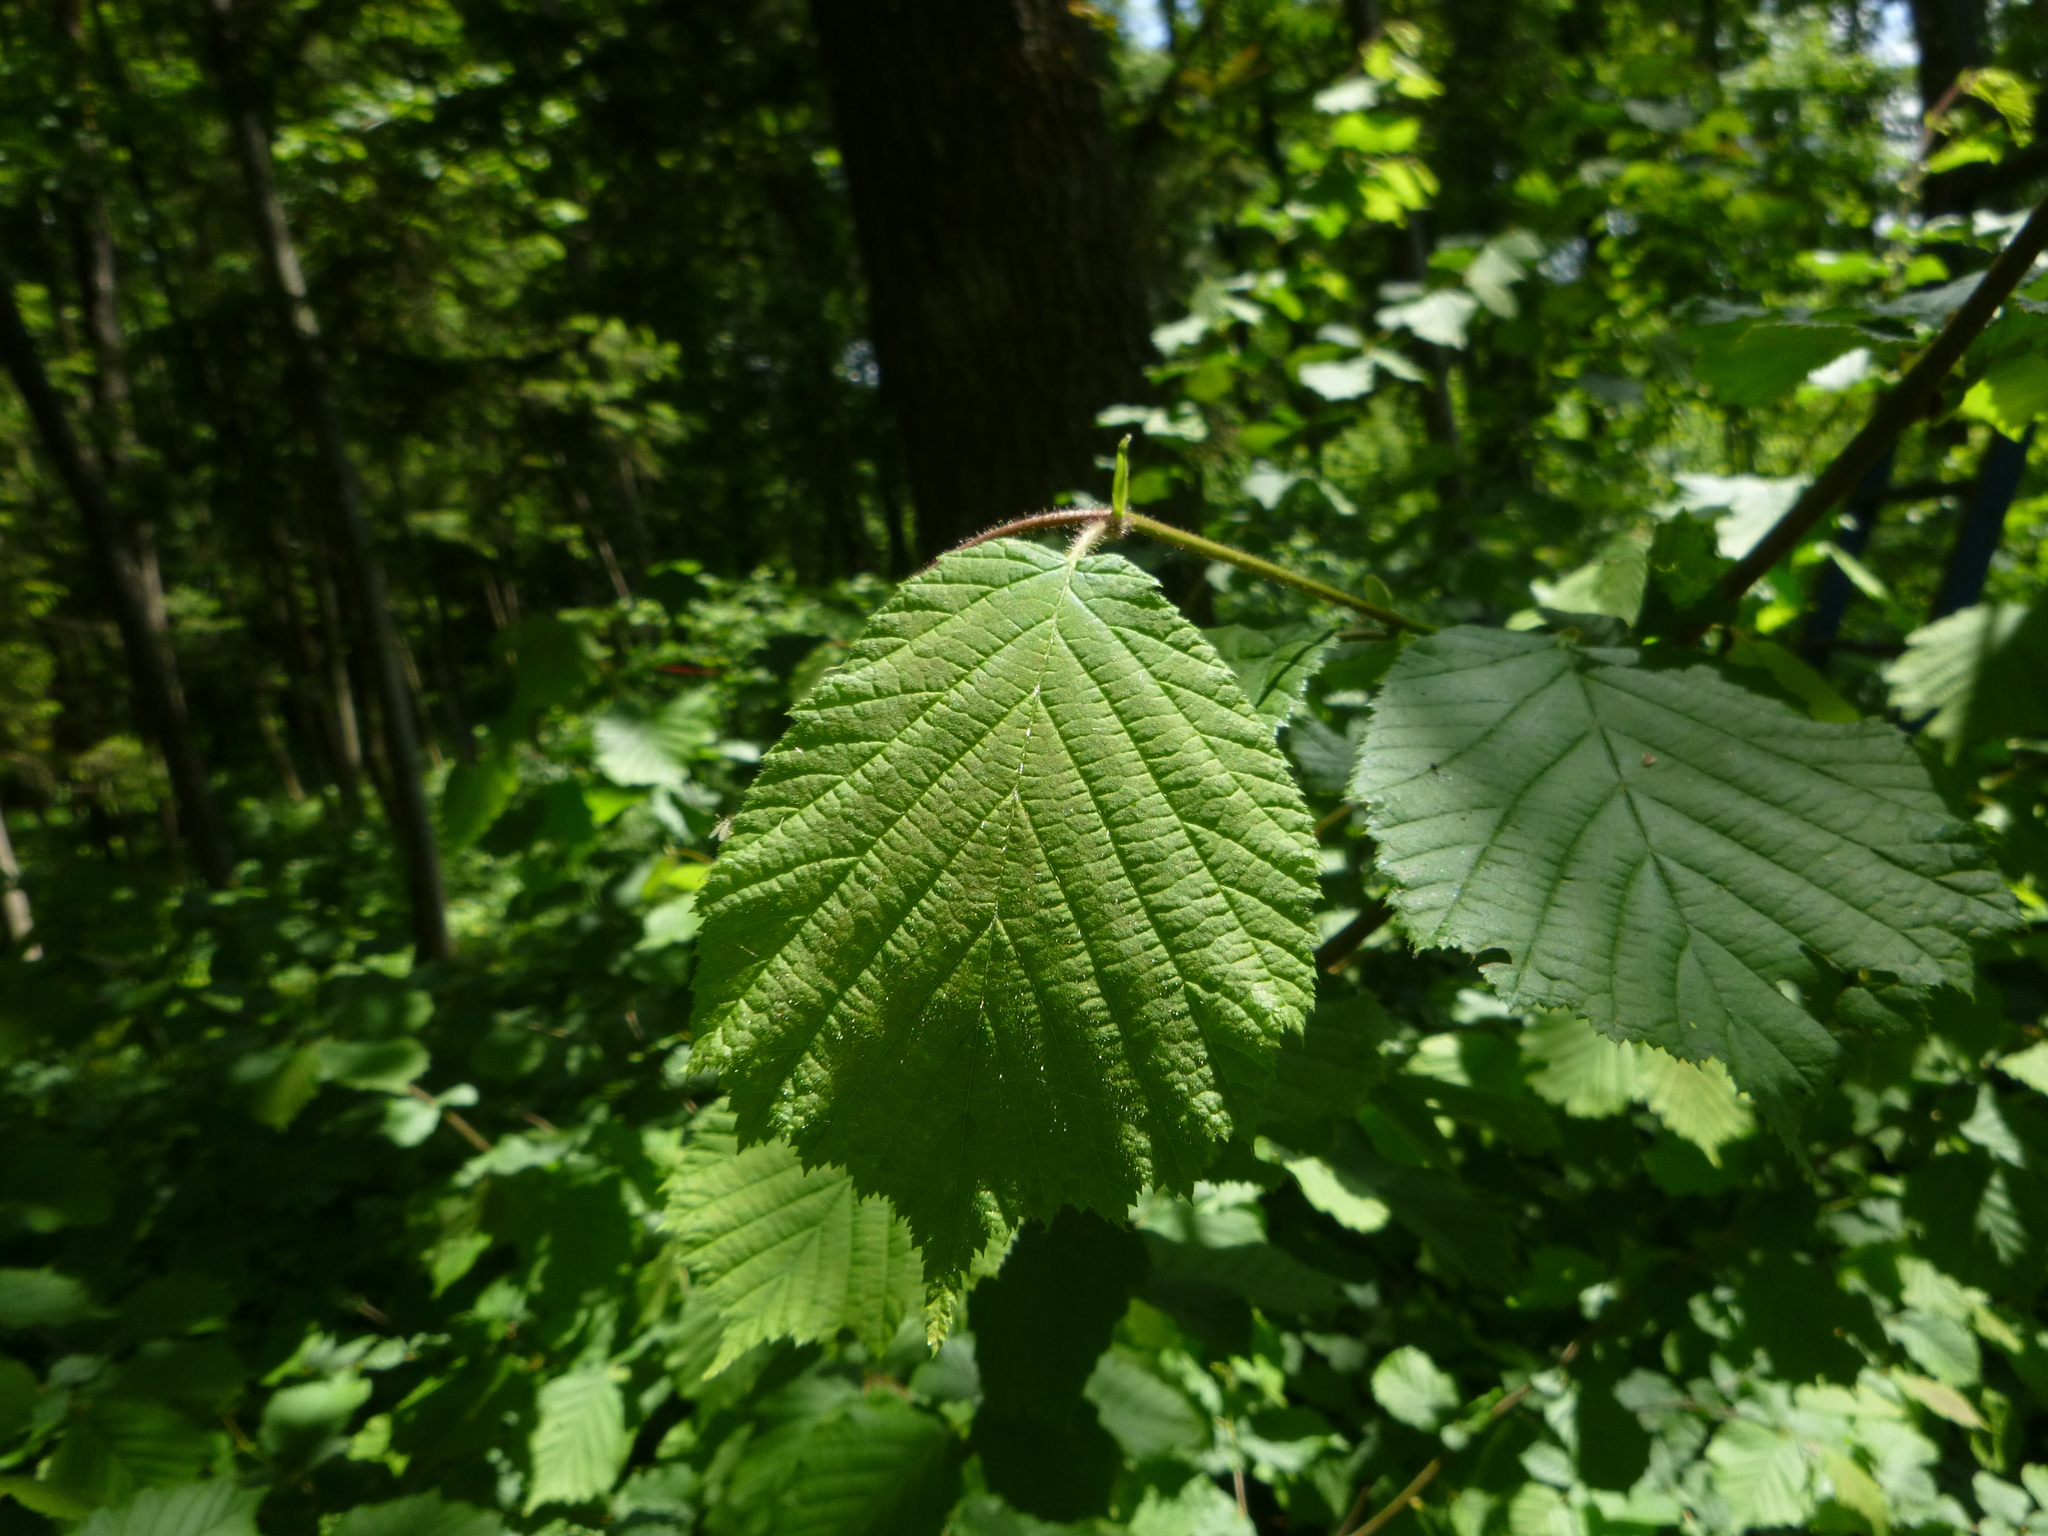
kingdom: Plantae
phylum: Tracheophyta
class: Magnoliopsida
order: Fagales
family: Betulaceae
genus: Corylus
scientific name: Corylus avellana
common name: European hazel
